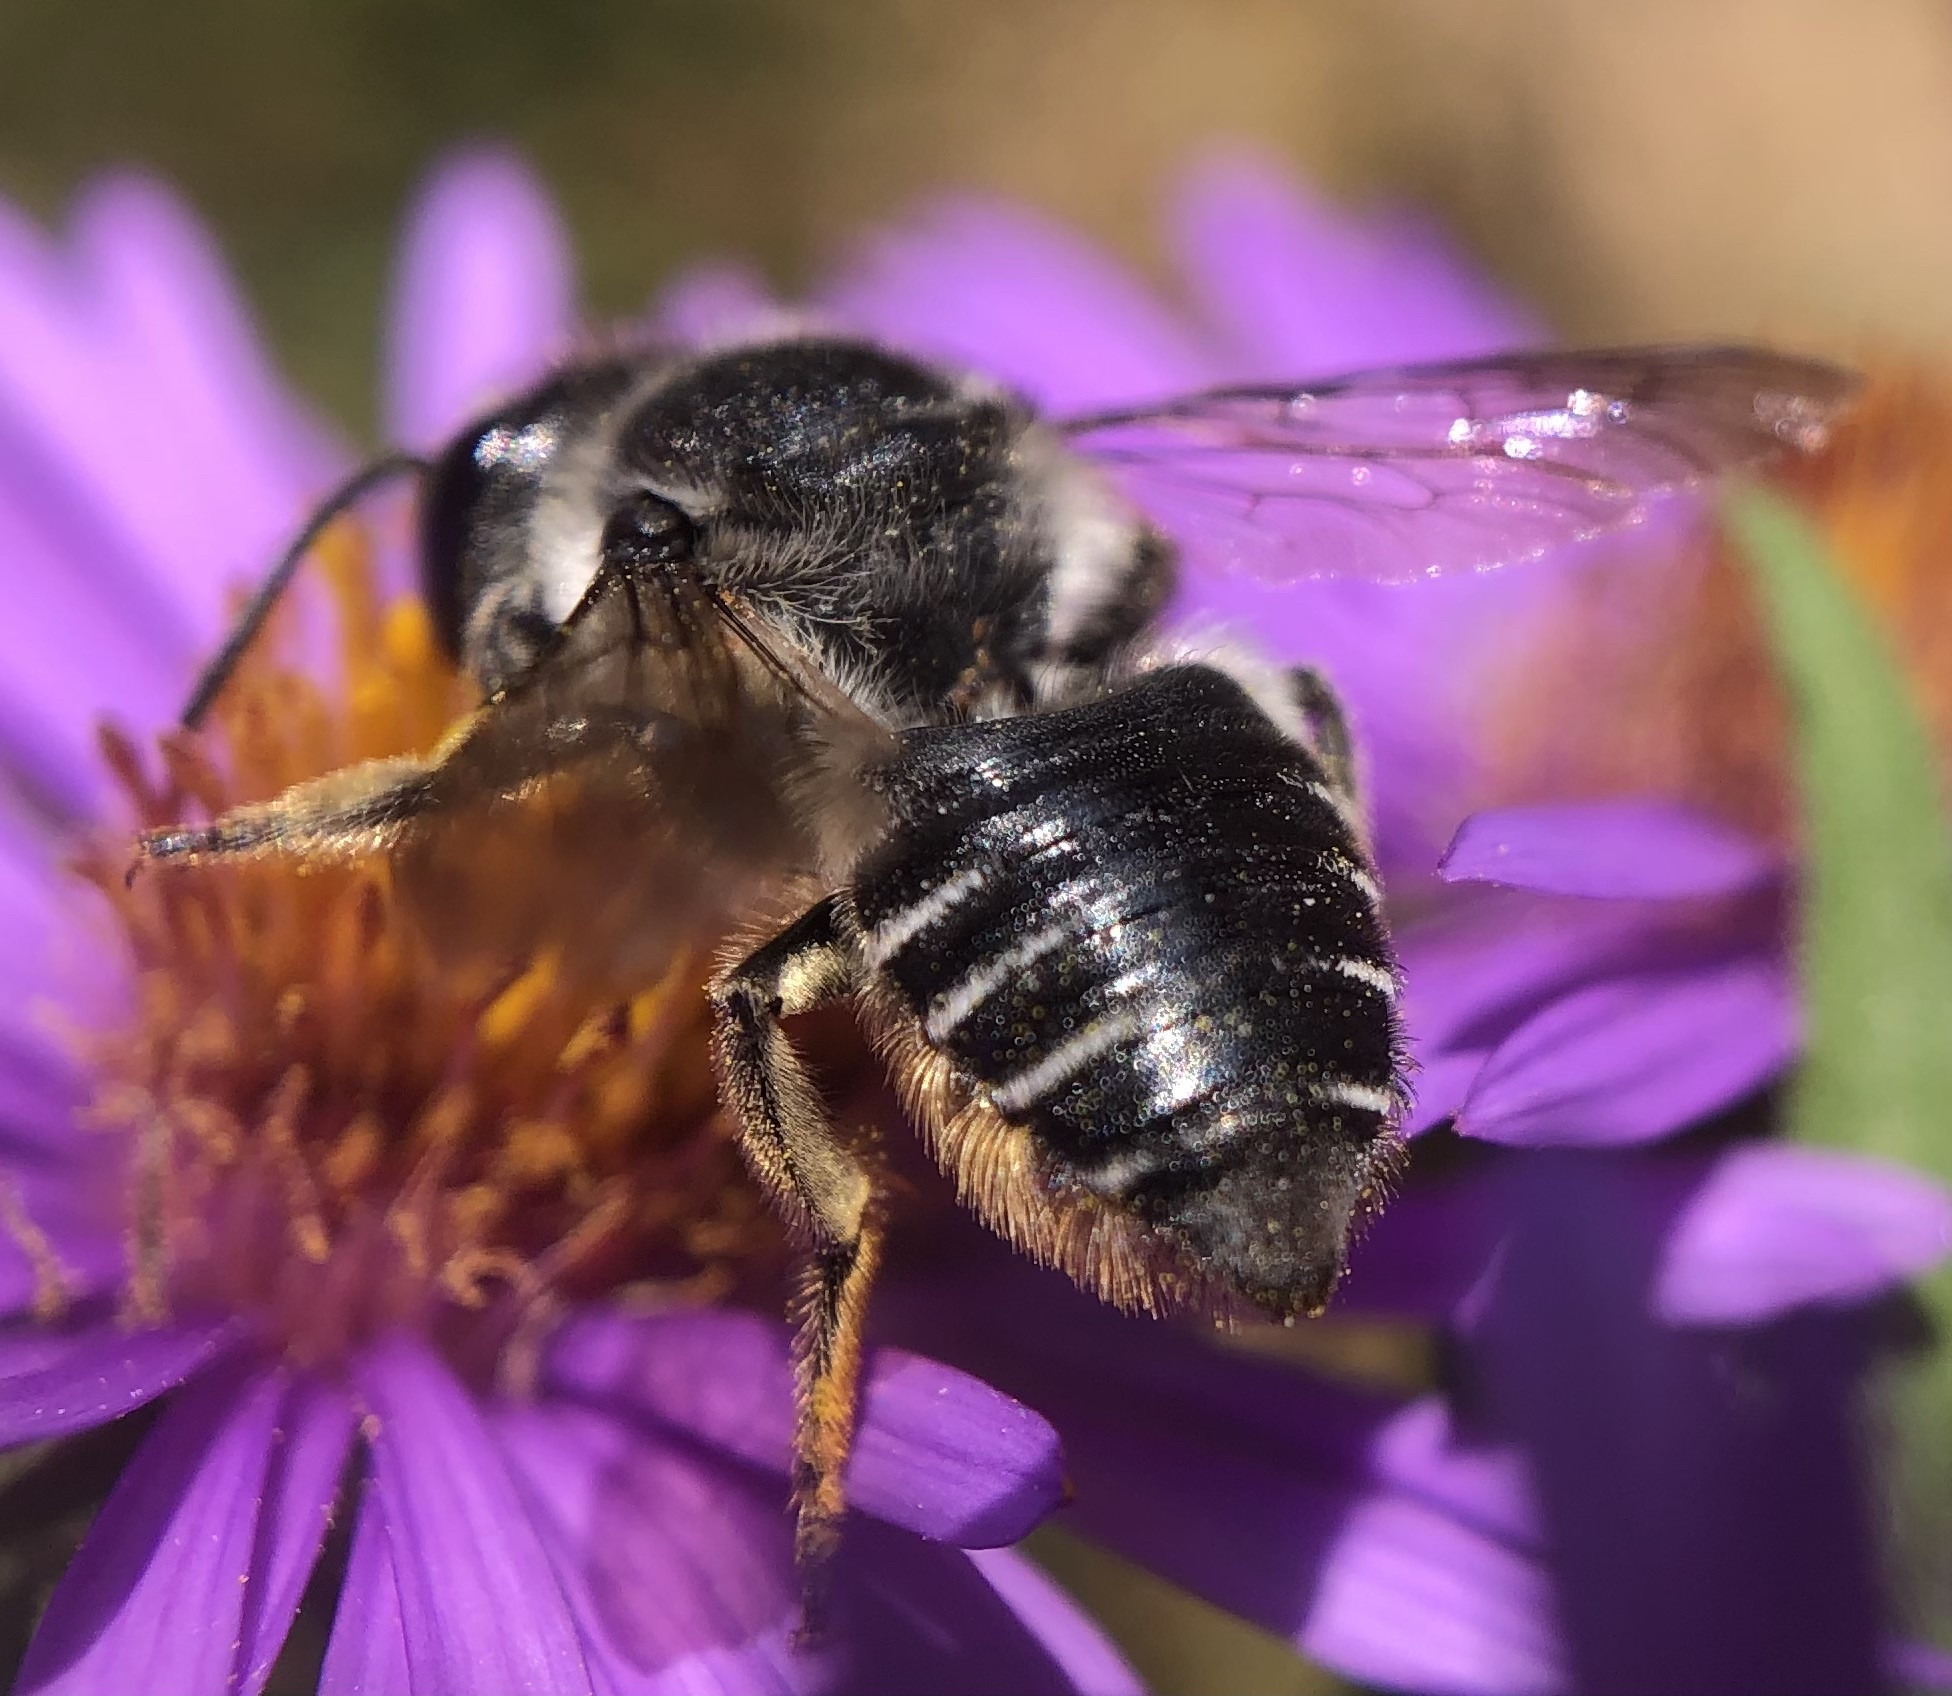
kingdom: Animalia
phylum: Arthropoda
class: Insecta
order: Hymenoptera
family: Megachilidae
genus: Megachile
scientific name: Megachile mendica
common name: Flat-tailed leafcutter
